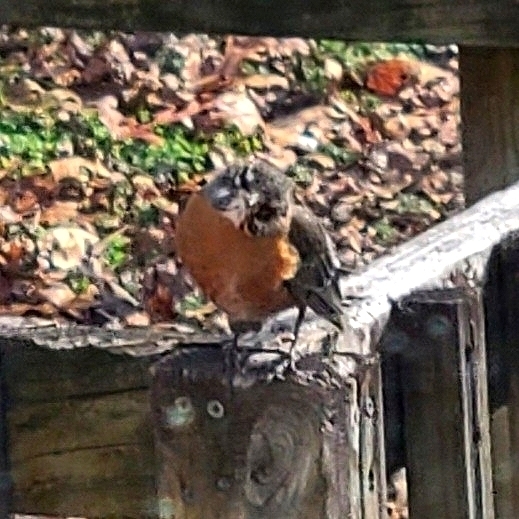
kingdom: Animalia
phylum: Chordata
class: Aves
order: Passeriformes
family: Turdidae
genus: Turdus
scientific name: Turdus migratorius
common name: American robin
